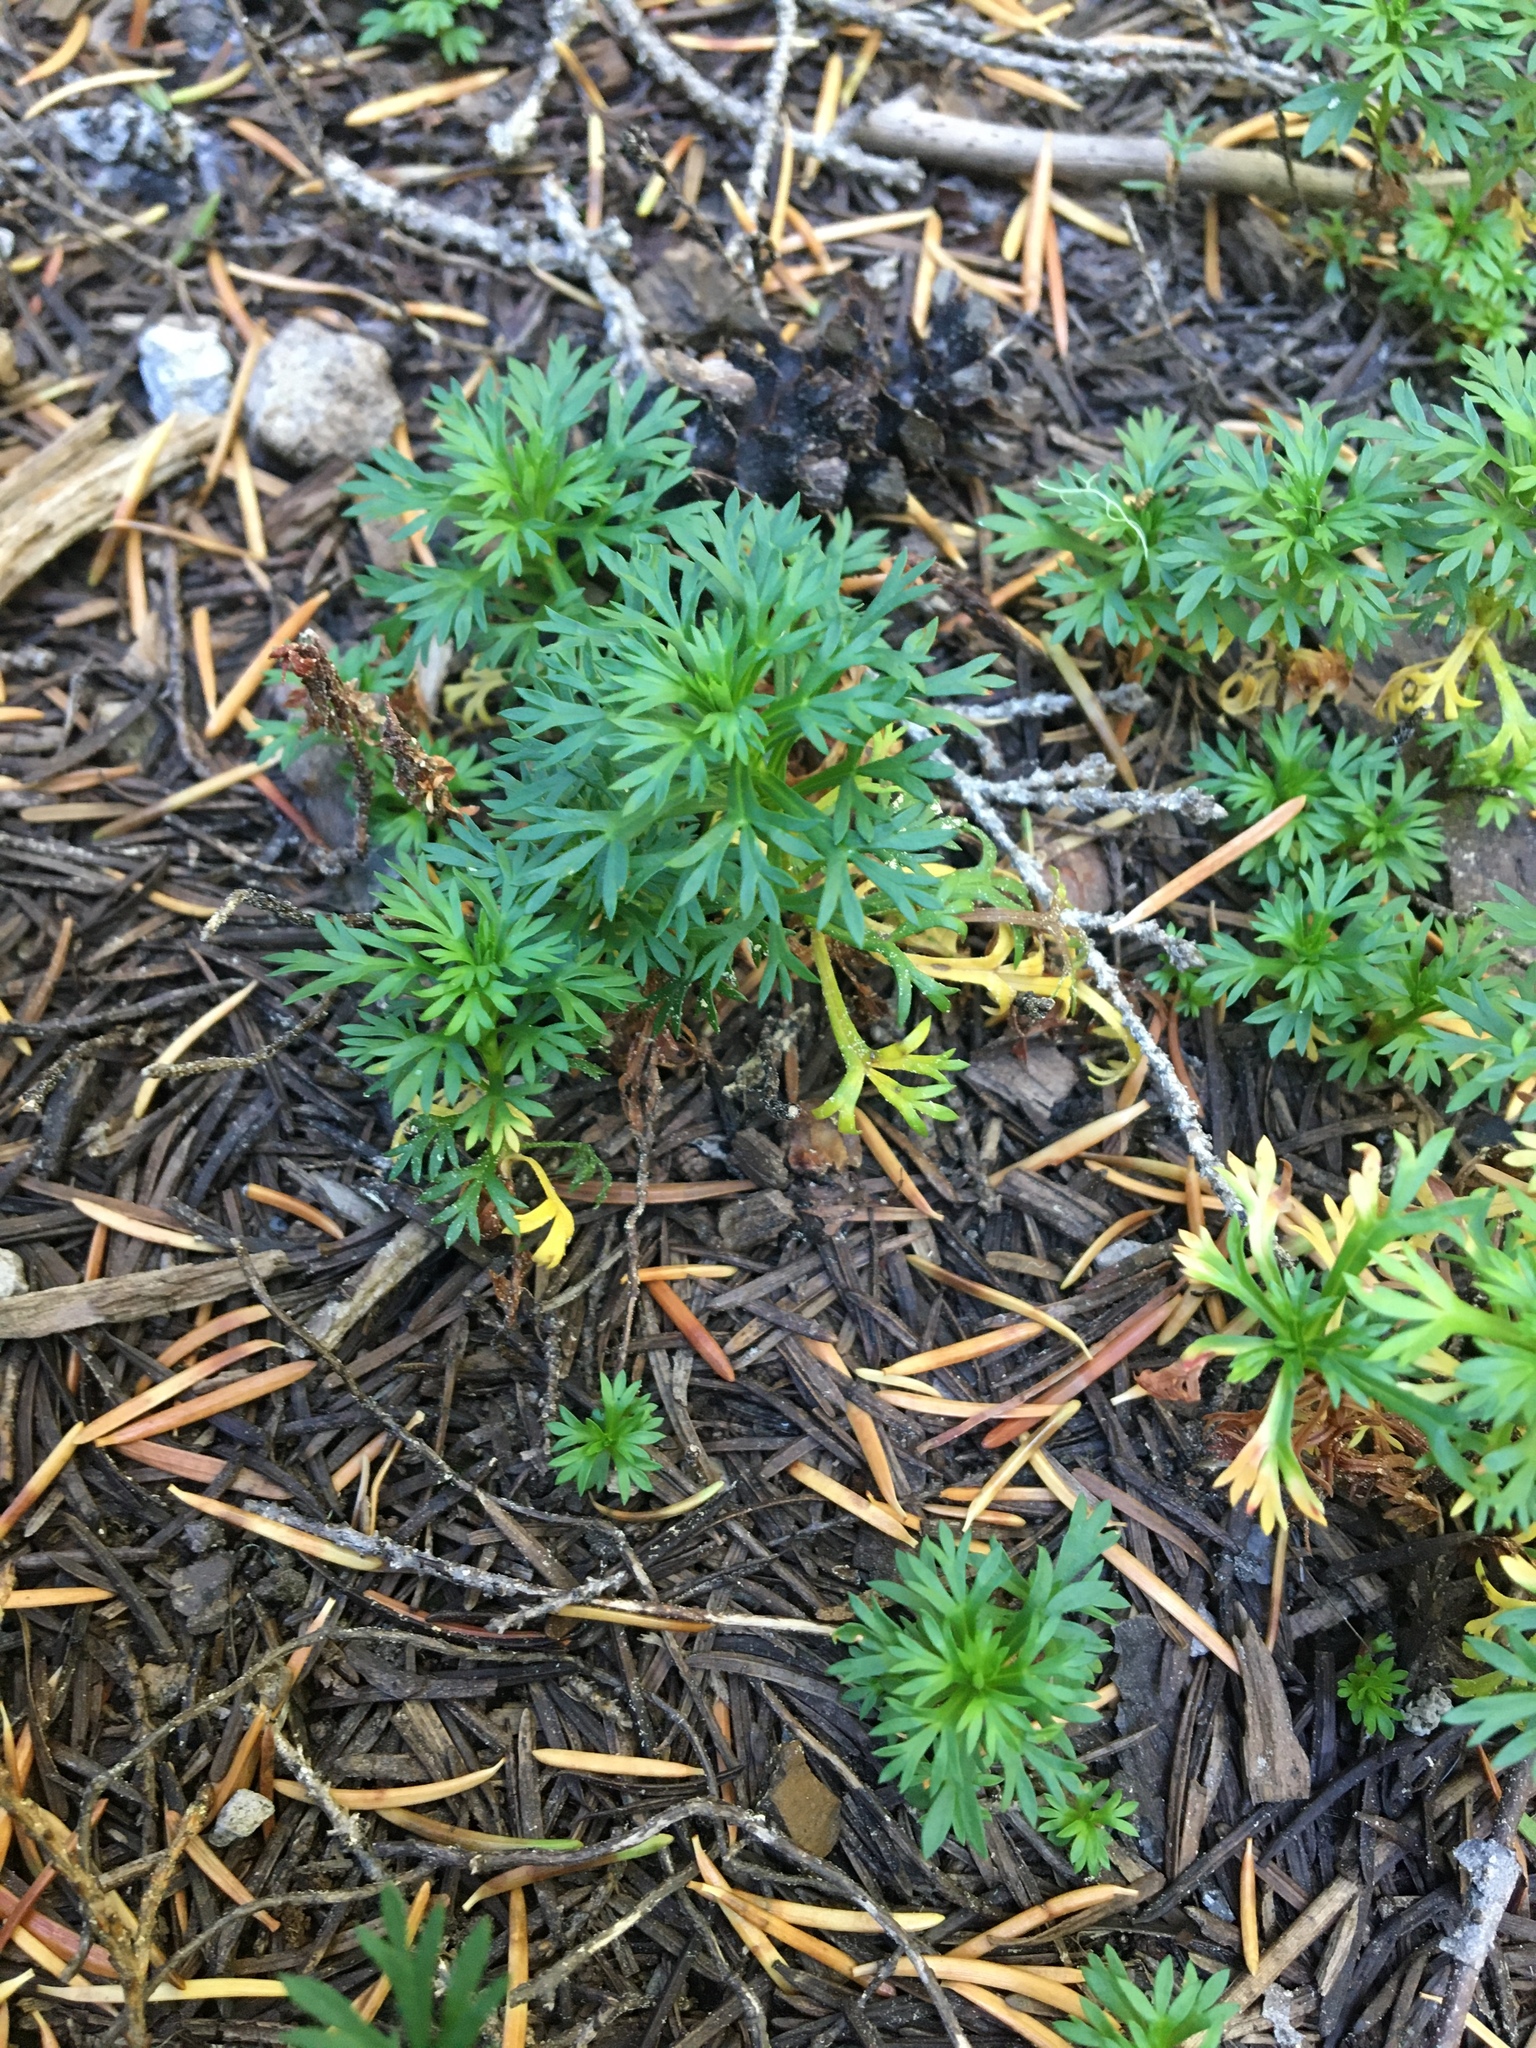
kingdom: Plantae
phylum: Tracheophyta
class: Magnoliopsida
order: Rosales
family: Rosaceae
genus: Luetkea
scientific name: Luetkea pectinata
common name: Partridgefoot
